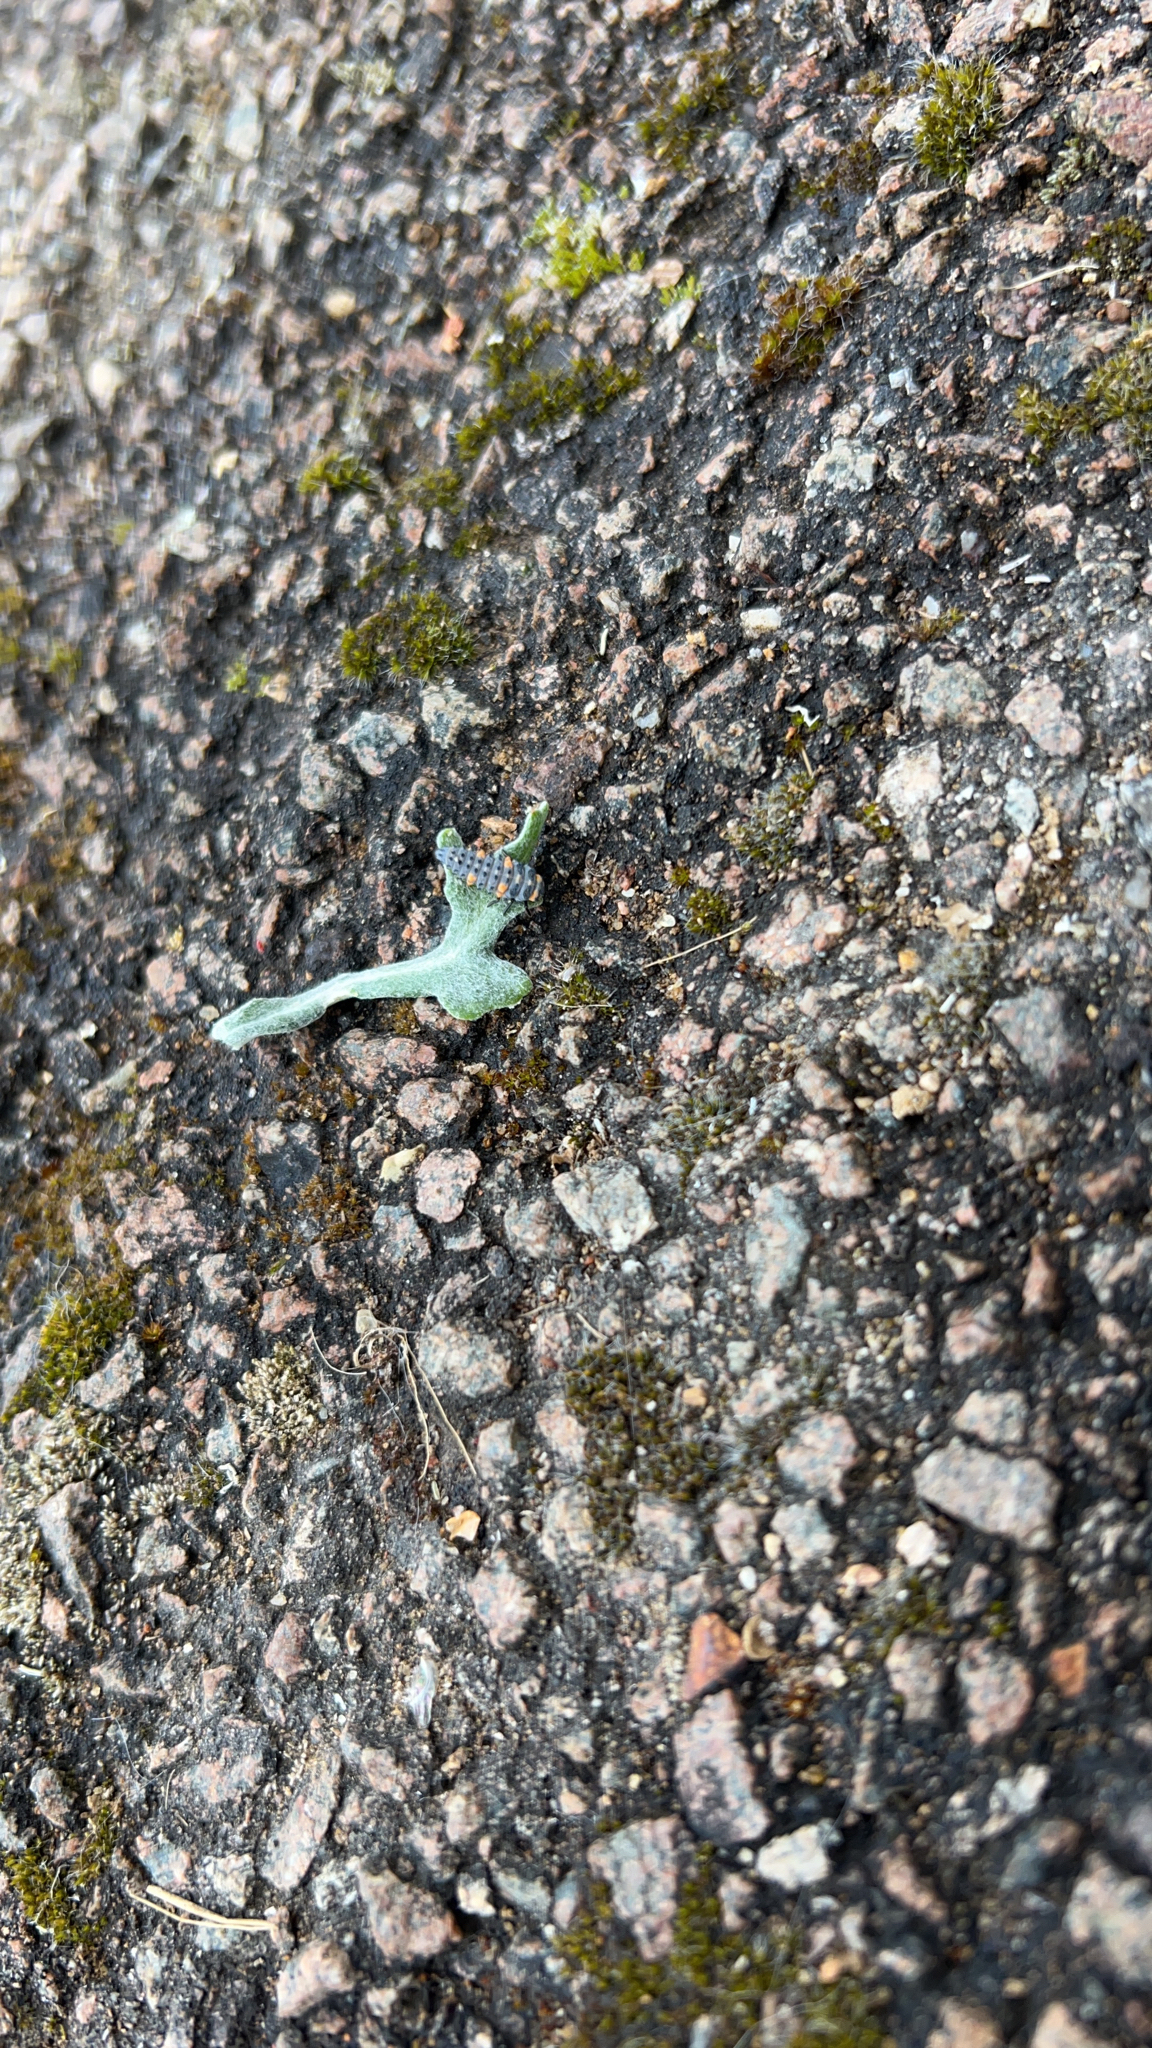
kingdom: Animalia
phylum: Arthropoda
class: Insecta
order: Coleoptera
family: Coccinellidae
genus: Coccinella
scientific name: Coccinella septempunctata
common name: Sevenspotted lady beetle
